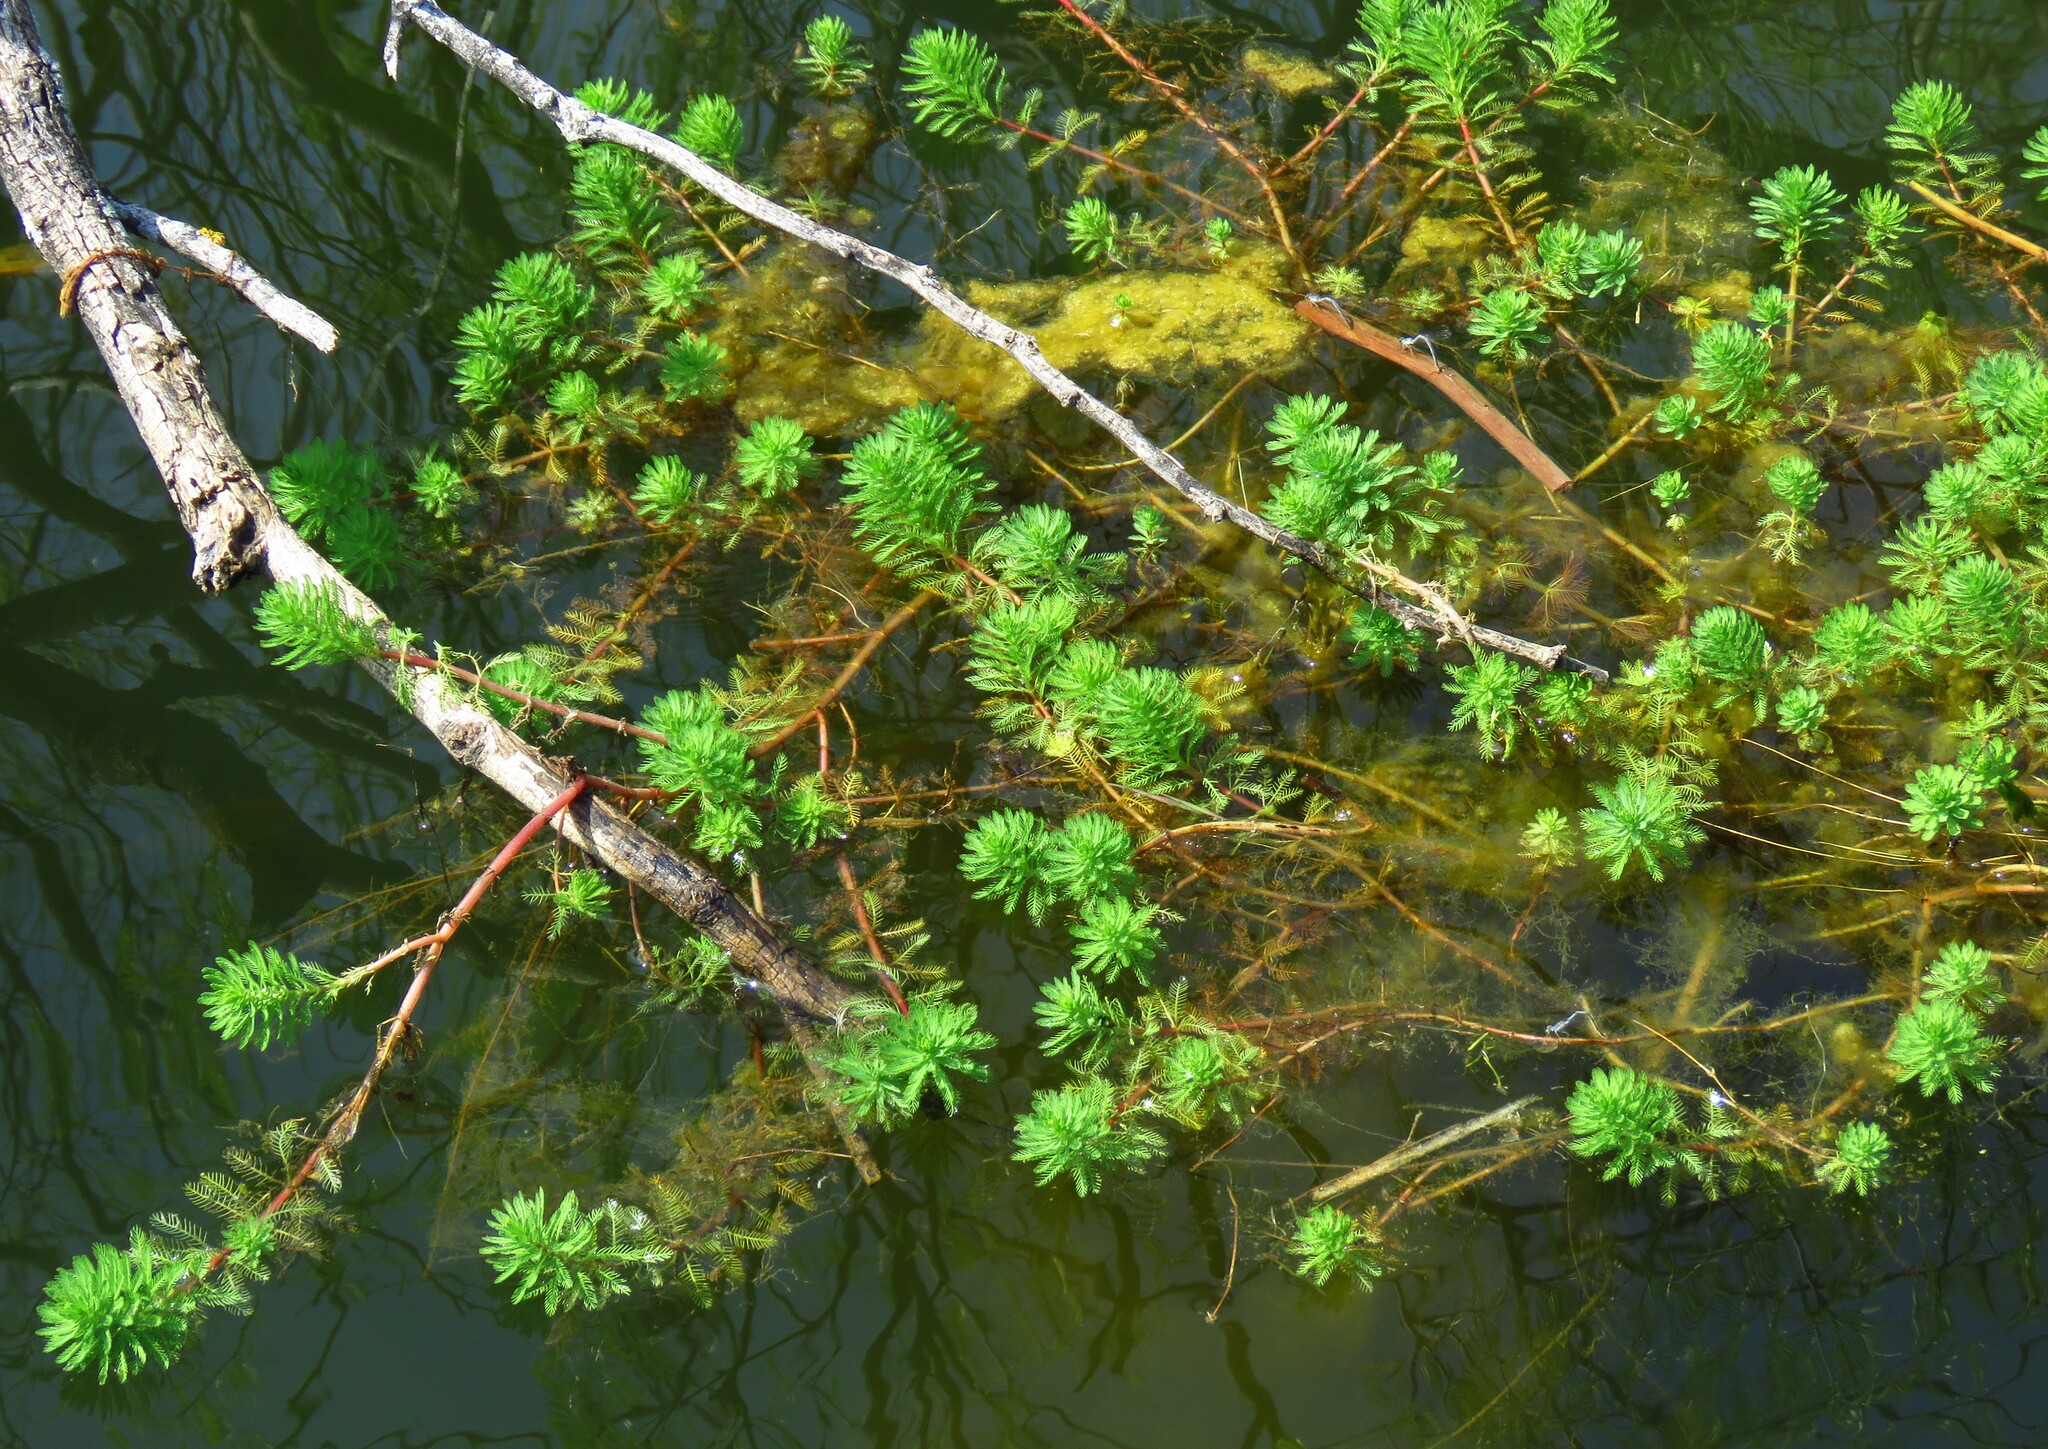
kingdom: Plantae
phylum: Tracheophyta
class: Magnoliopsida
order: Saxifragales
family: Haloragaceae
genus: Myriophyllum
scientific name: Myriophyllum aquaticum
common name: Parrot's feather
